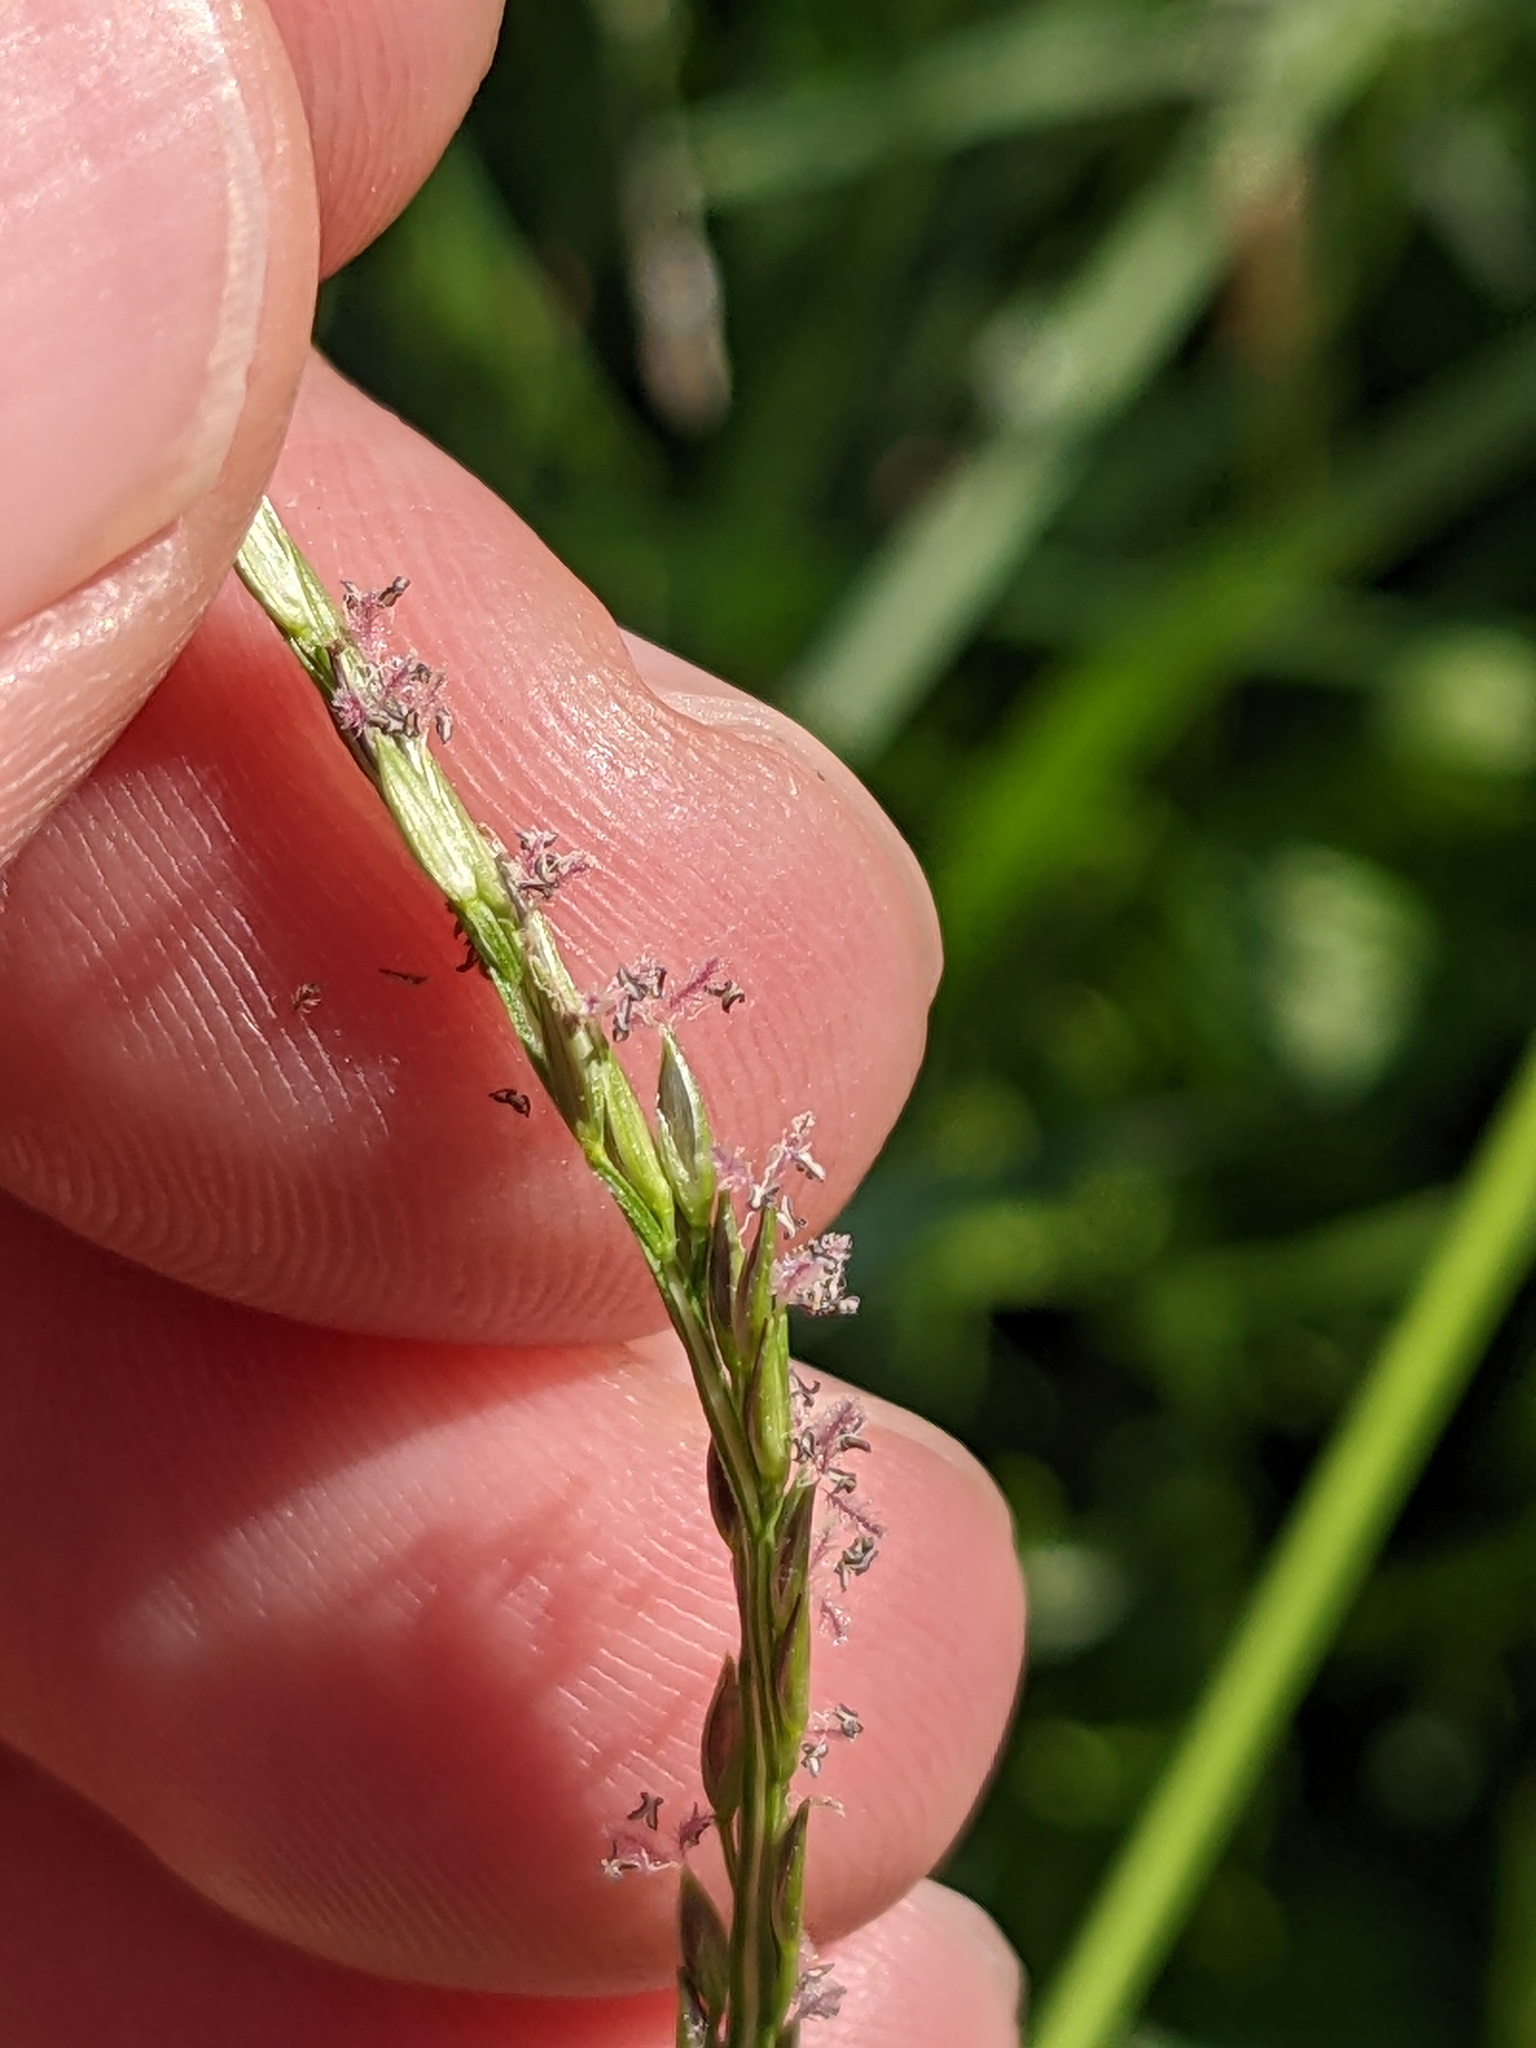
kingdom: Plantae
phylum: Tracheophyta
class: Liliopsida
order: Poales
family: Poaceae
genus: Digitaria
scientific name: Digitaria ciliaris
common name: Tropical finger-grass
